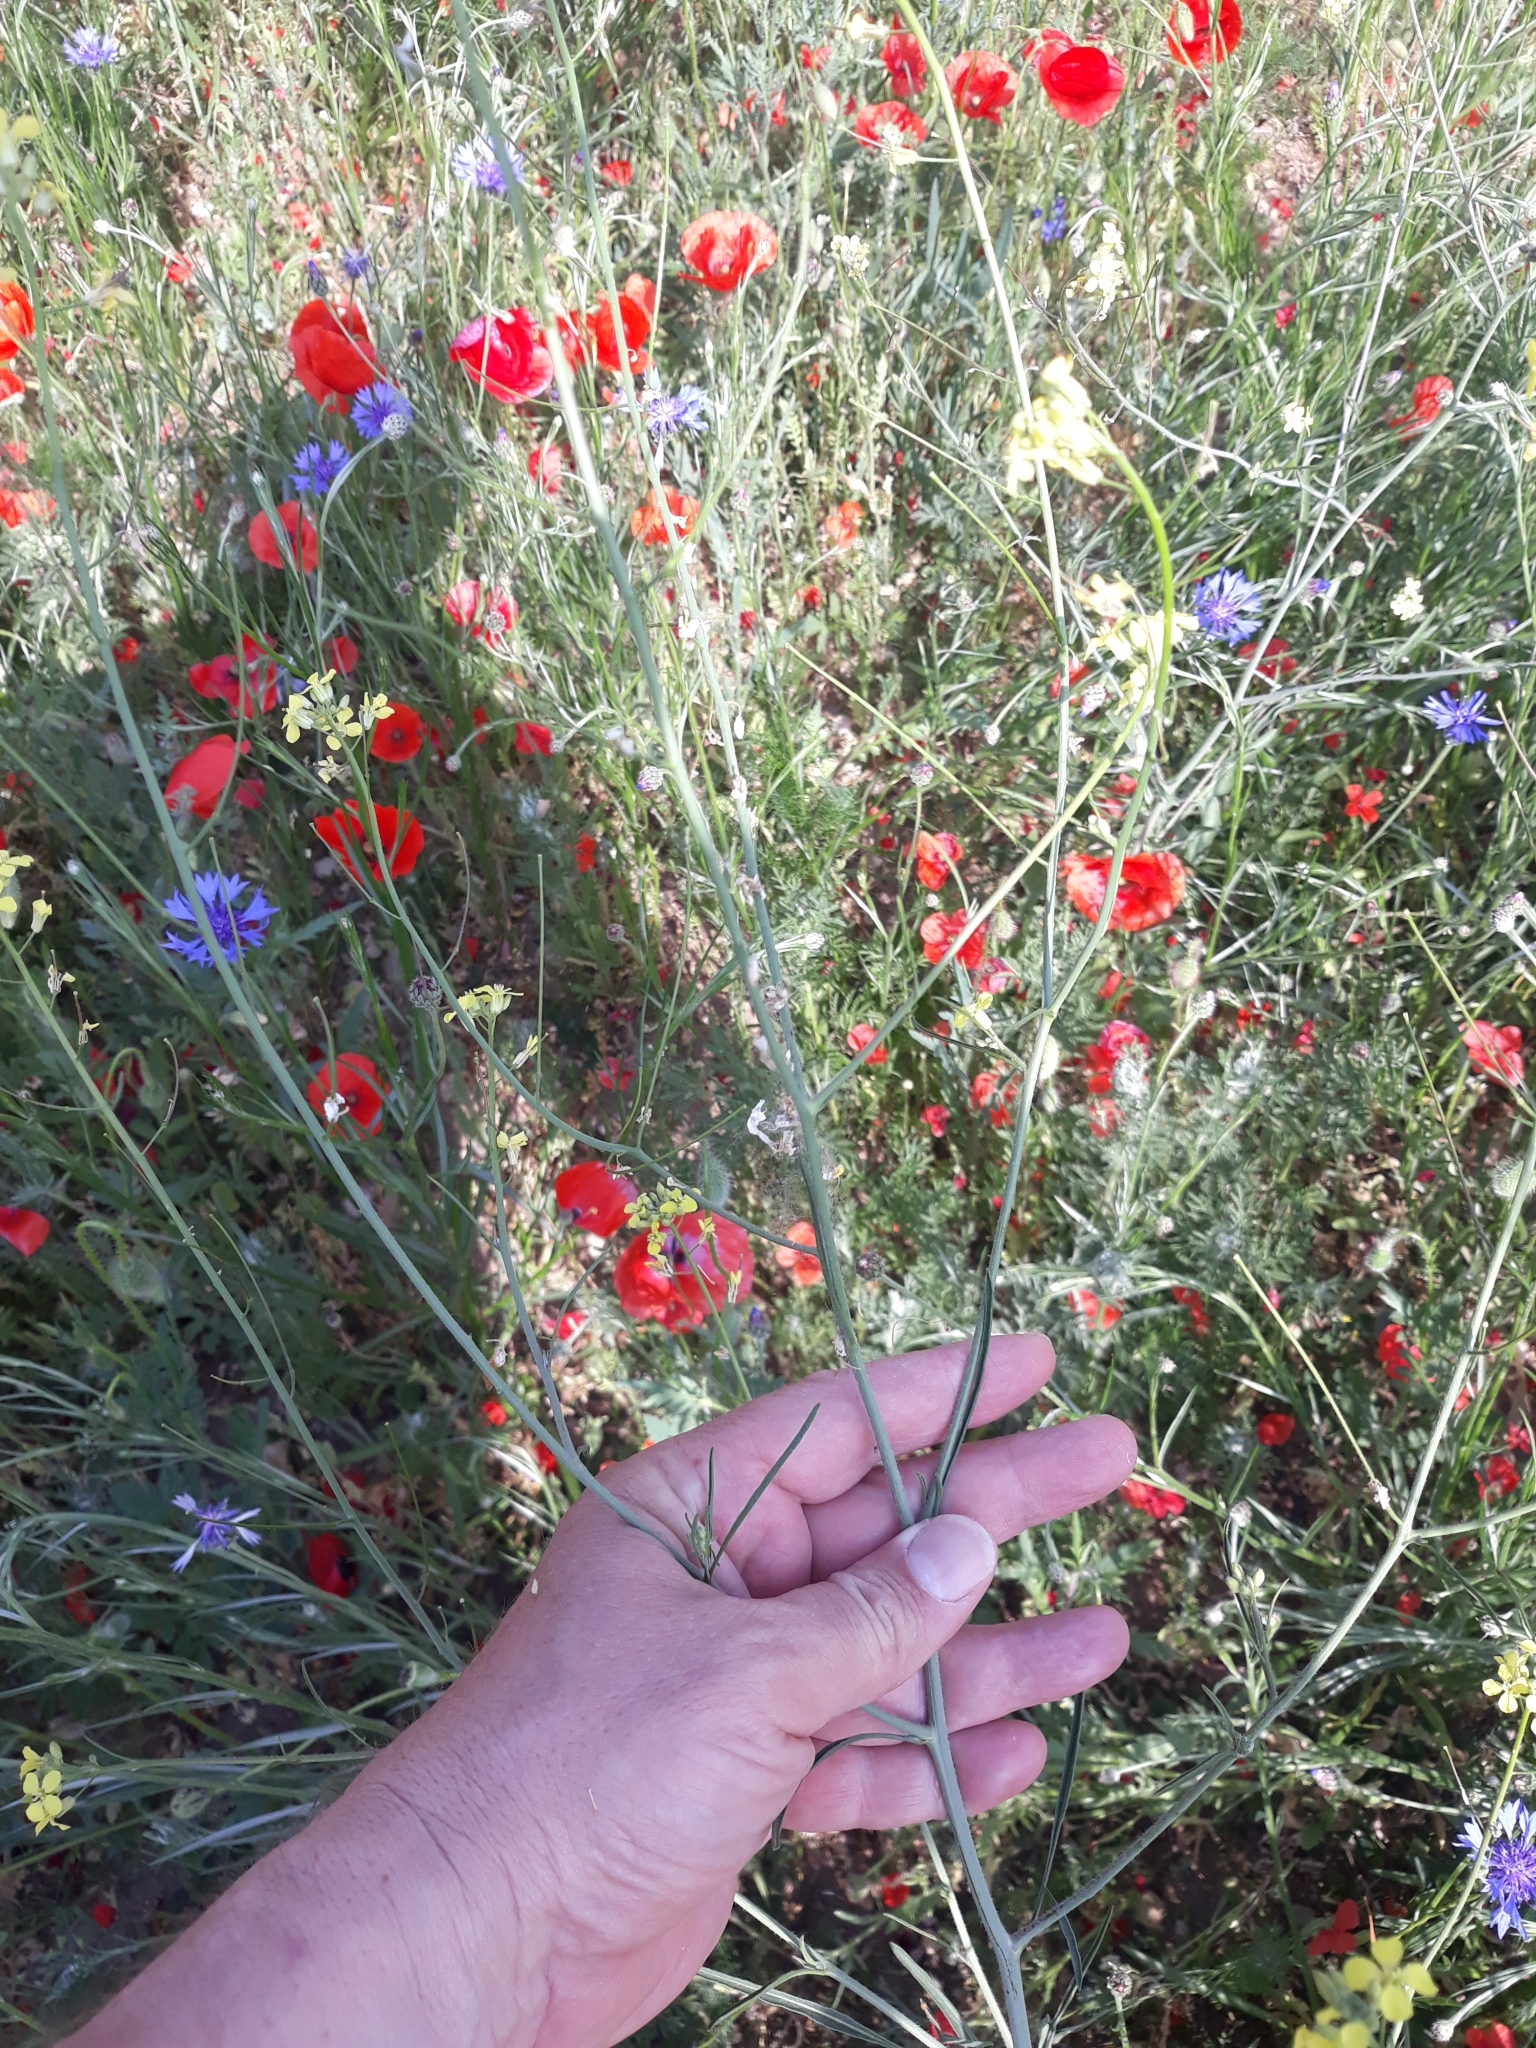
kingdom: Plantae
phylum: Tracheophyta
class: Magnoliopsida
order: Brassicales
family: Brassicaceae
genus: Sisymbrium
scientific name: Sisymbrium orientale
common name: Eastern rocket
